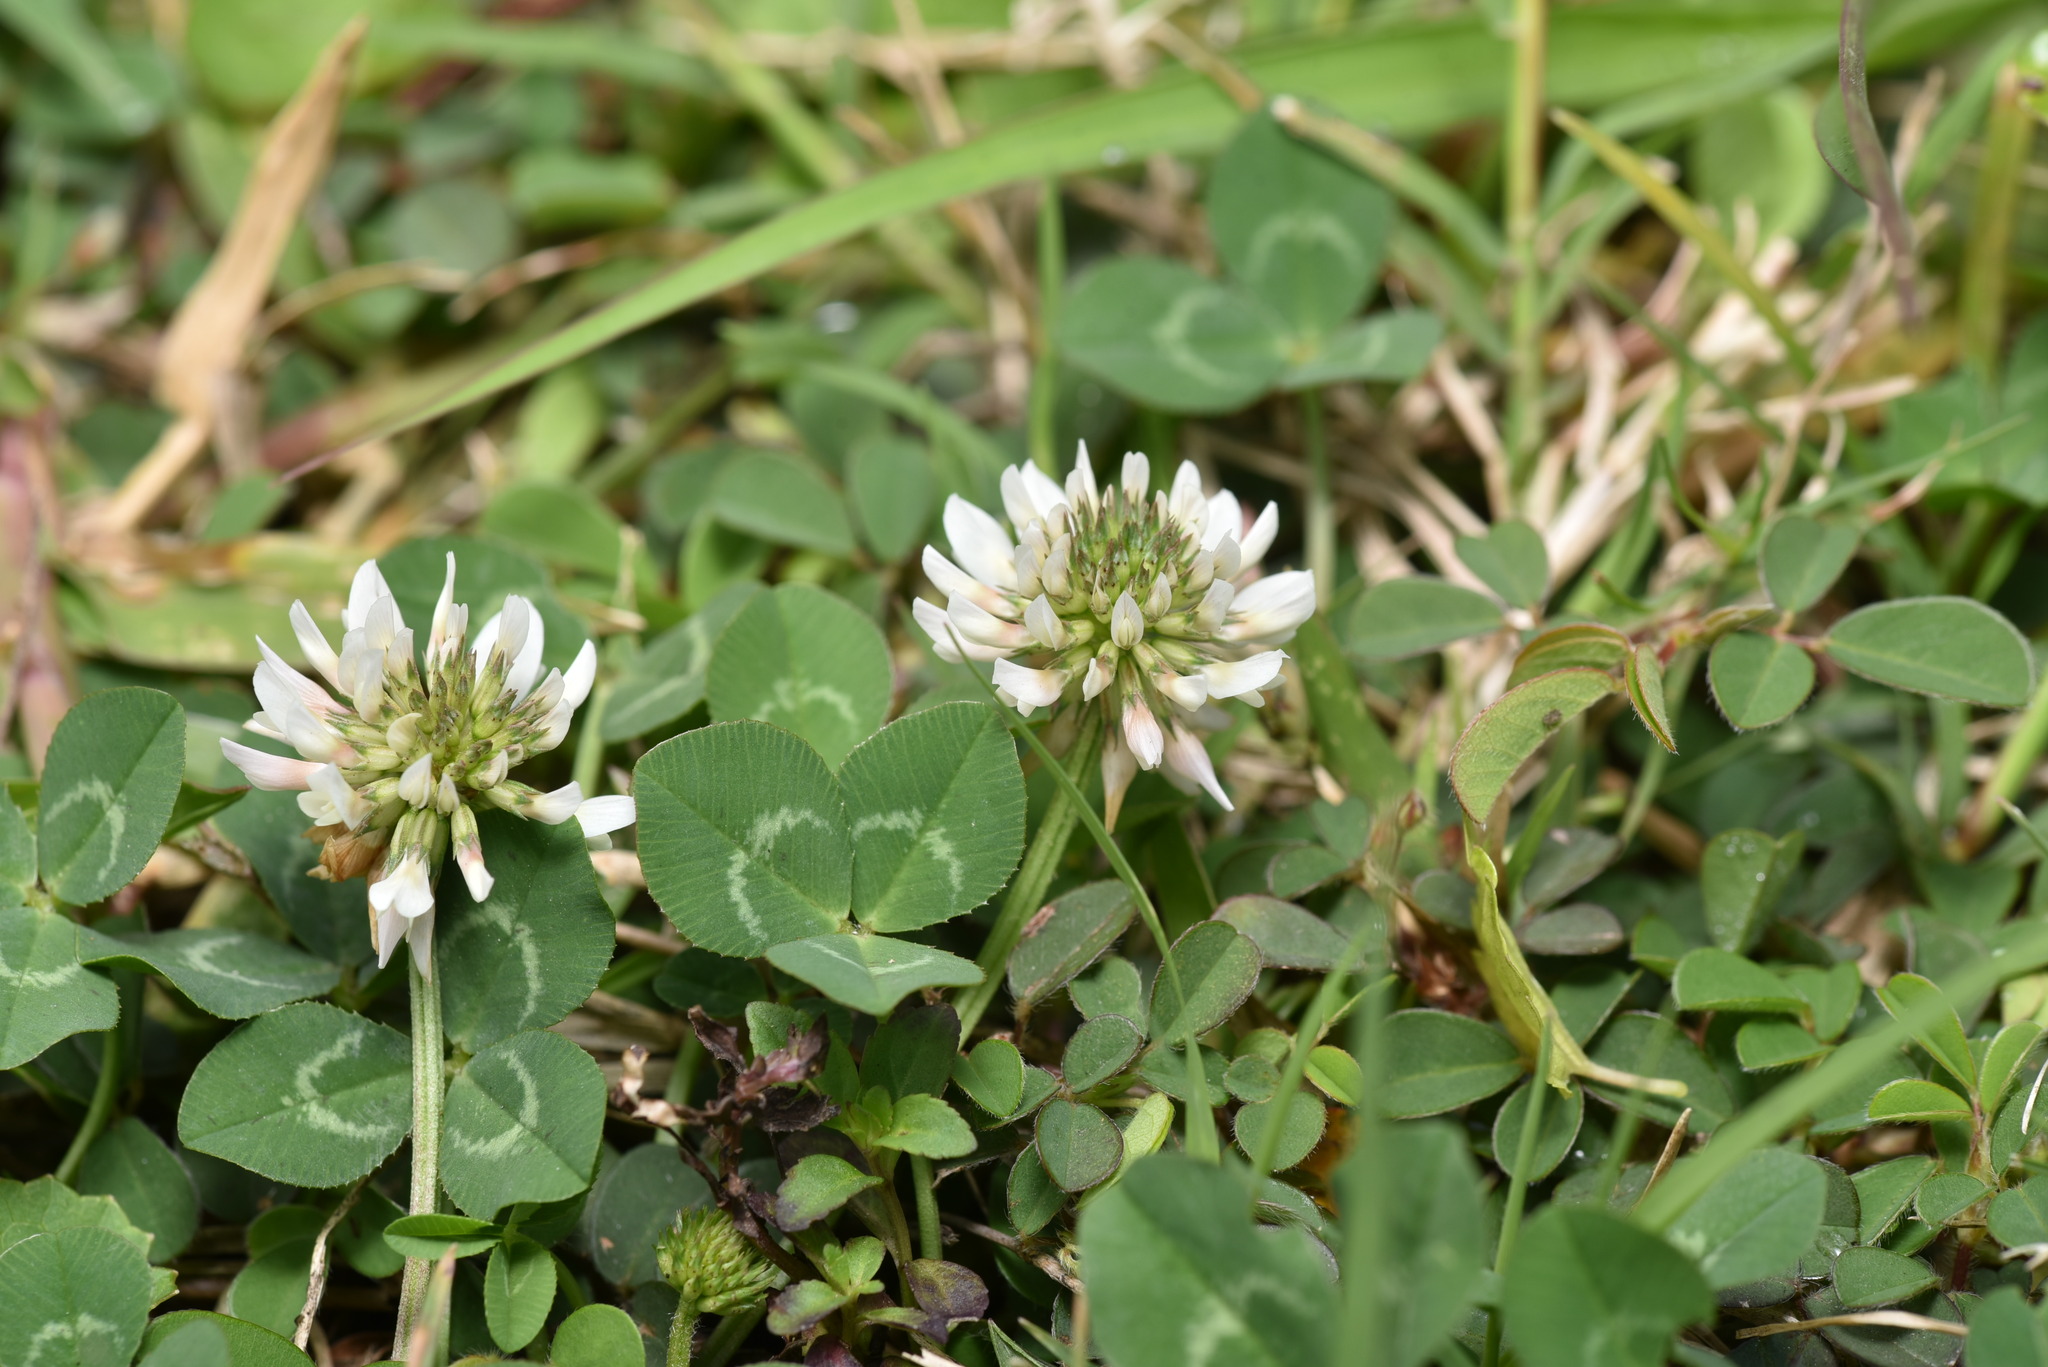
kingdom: Plantae
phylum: Tracheophyta
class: Magnoliopsida
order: Fabales
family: Fabaceae
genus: Trifolium
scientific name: Trifolium repens
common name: White clover
